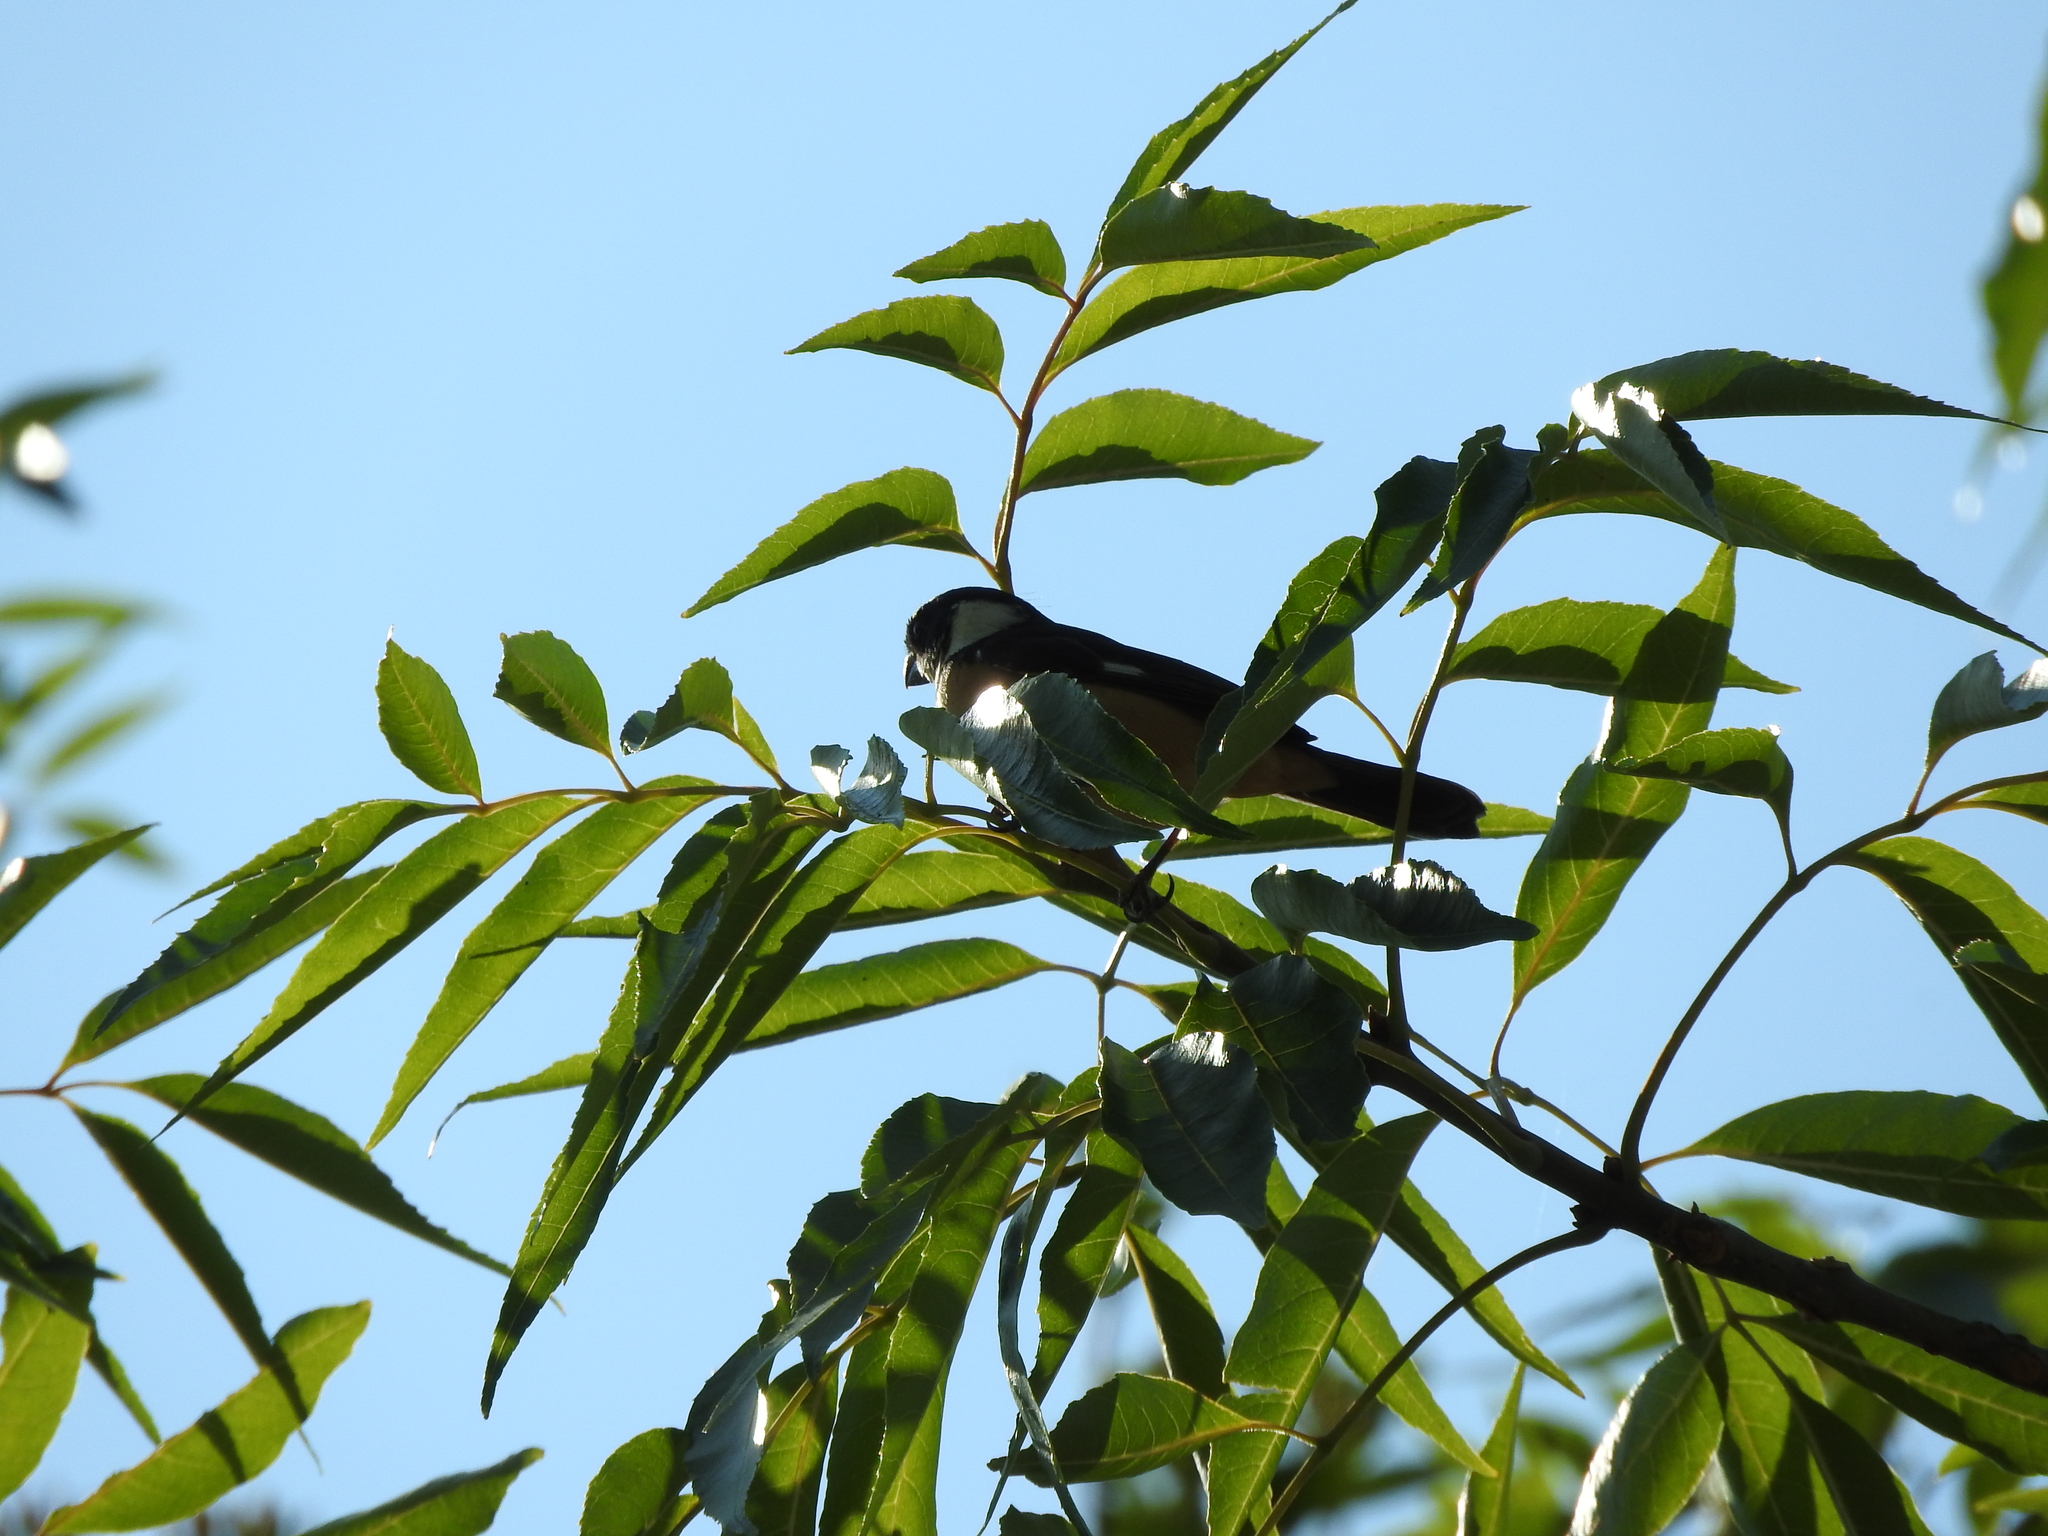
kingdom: Animalia
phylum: Chordata
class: Aves
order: Passeriformes
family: Thraupidae
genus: Sporophila
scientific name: Sporophila torqueola
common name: White-collared seedeater
